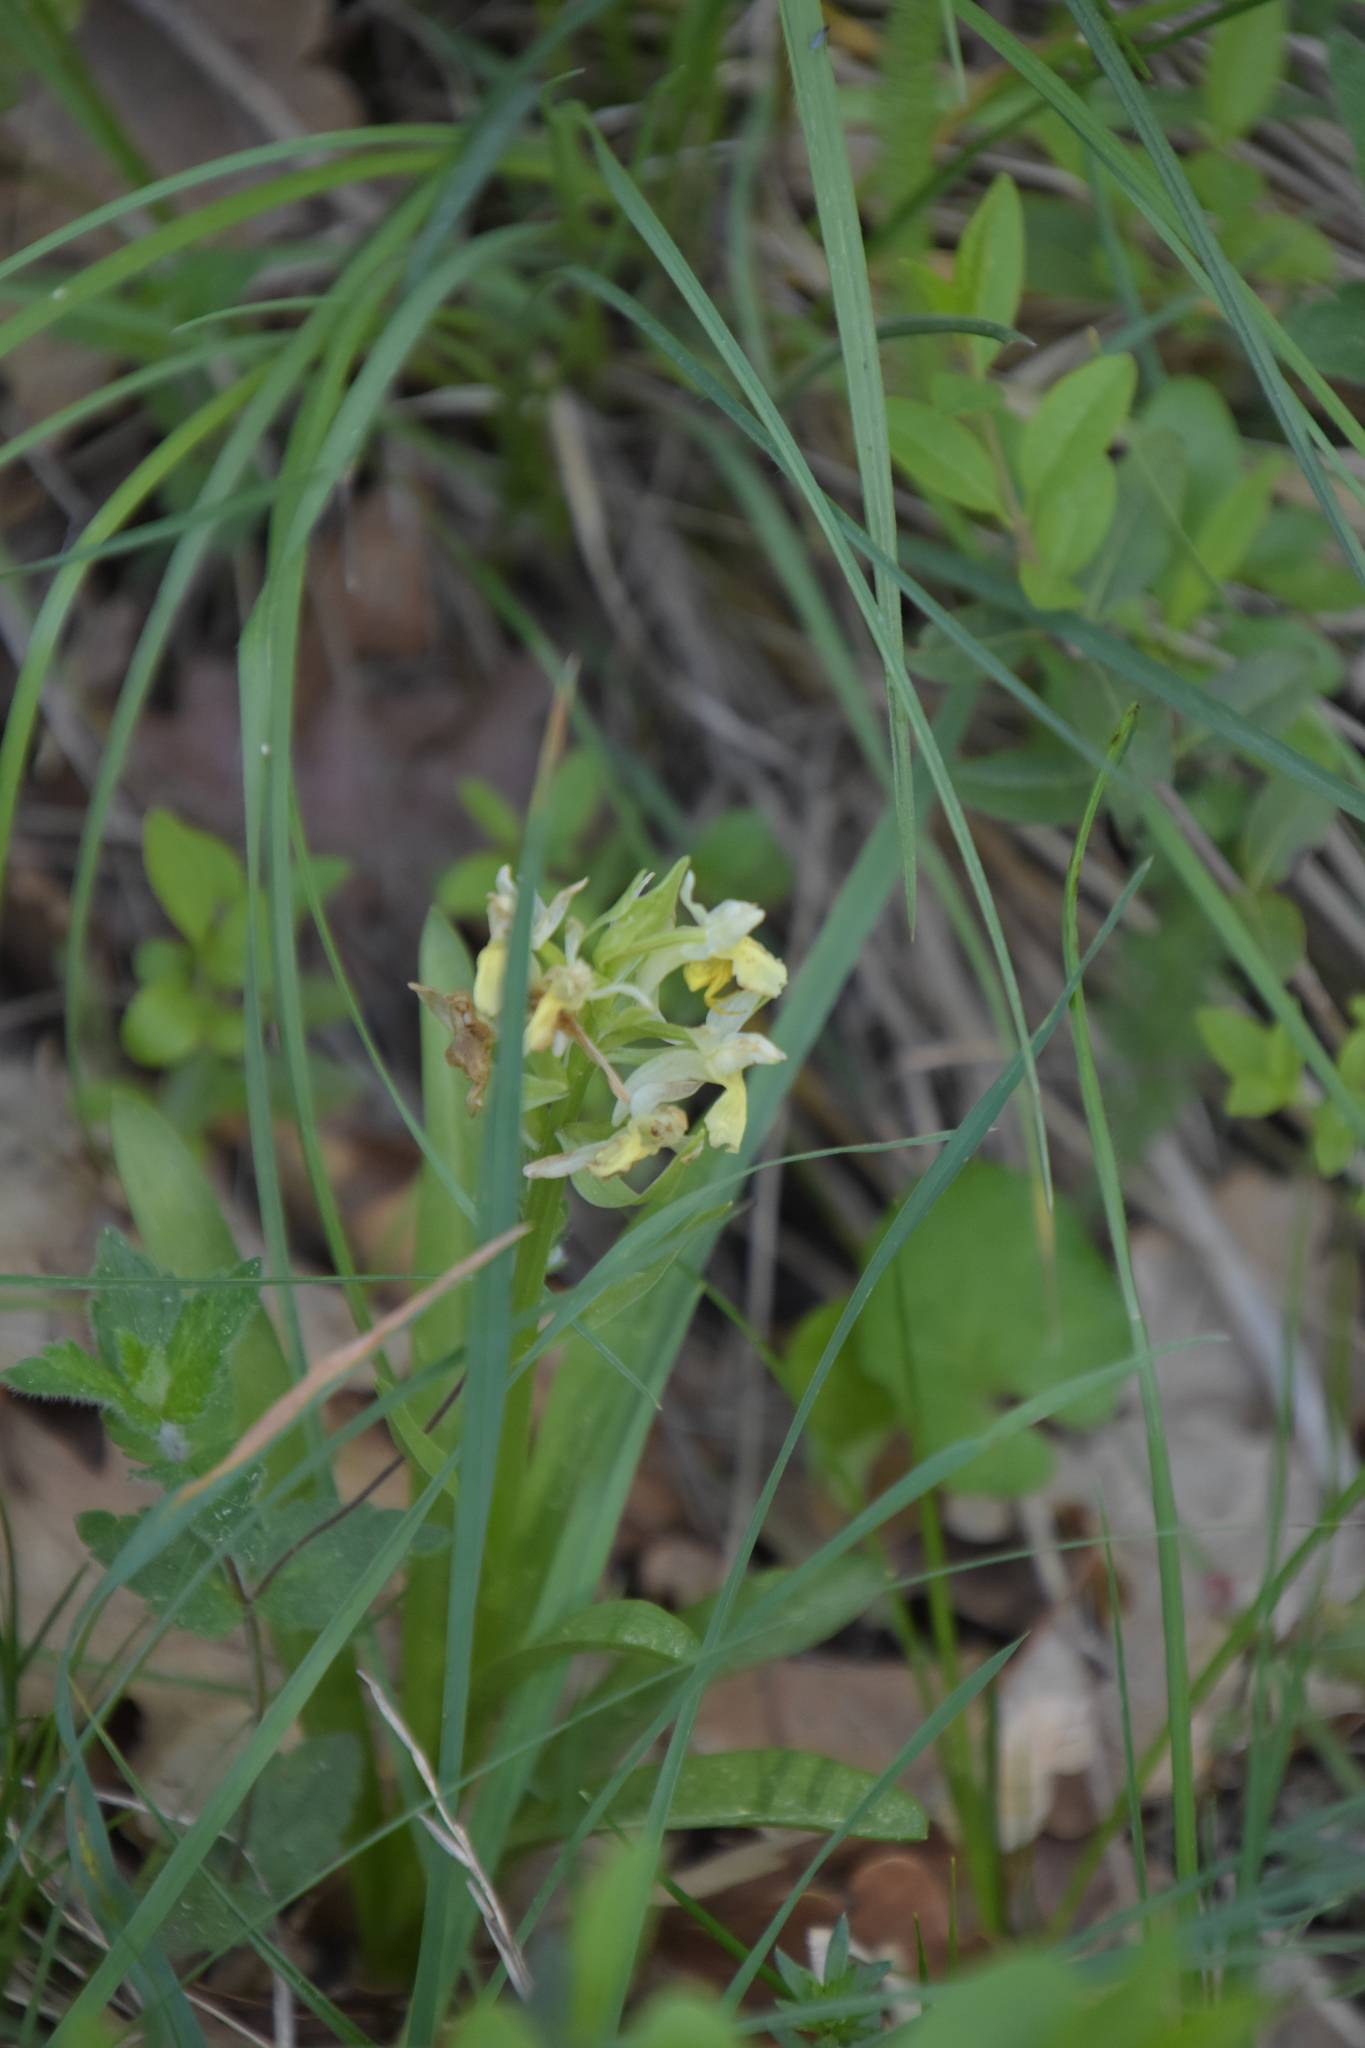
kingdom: Plantae
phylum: Tracheophyta
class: Liliopsida
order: Asparagales
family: Orchidaceae
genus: Dactylorhiza
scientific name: Dactylorhiza sambucina
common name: Elder-flowered orchid
